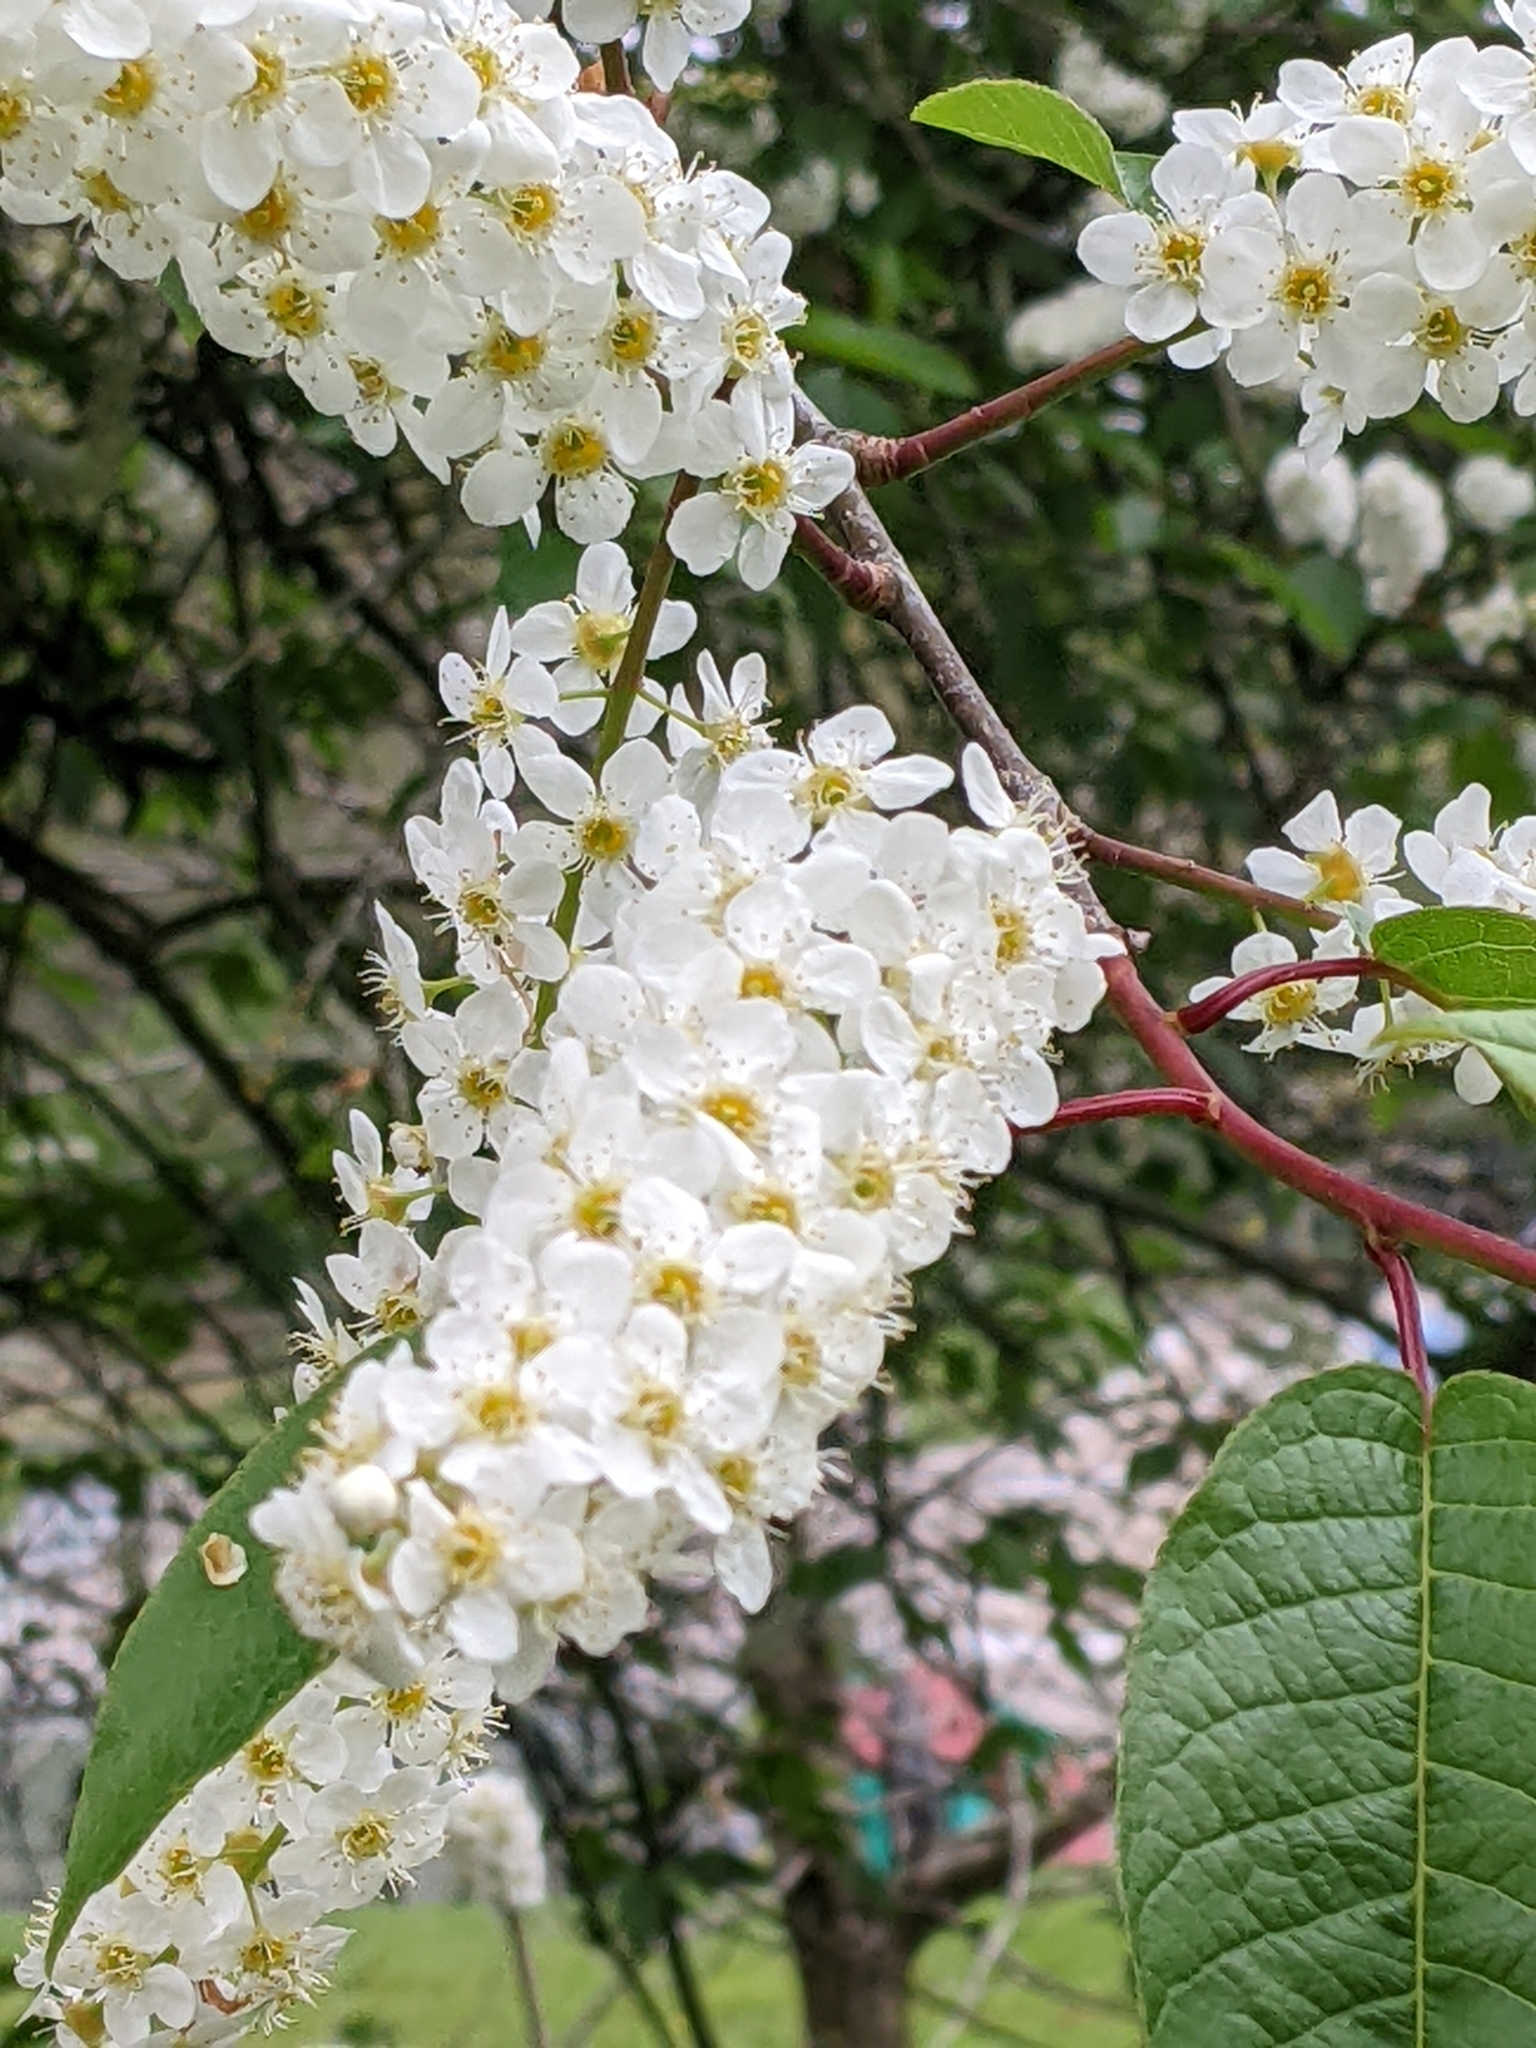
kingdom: Plantae
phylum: Tracheophyta
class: Magnoliopsida
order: Rosales
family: Rosaceae
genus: Prunus
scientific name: Prunus padus
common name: Bird cherry
